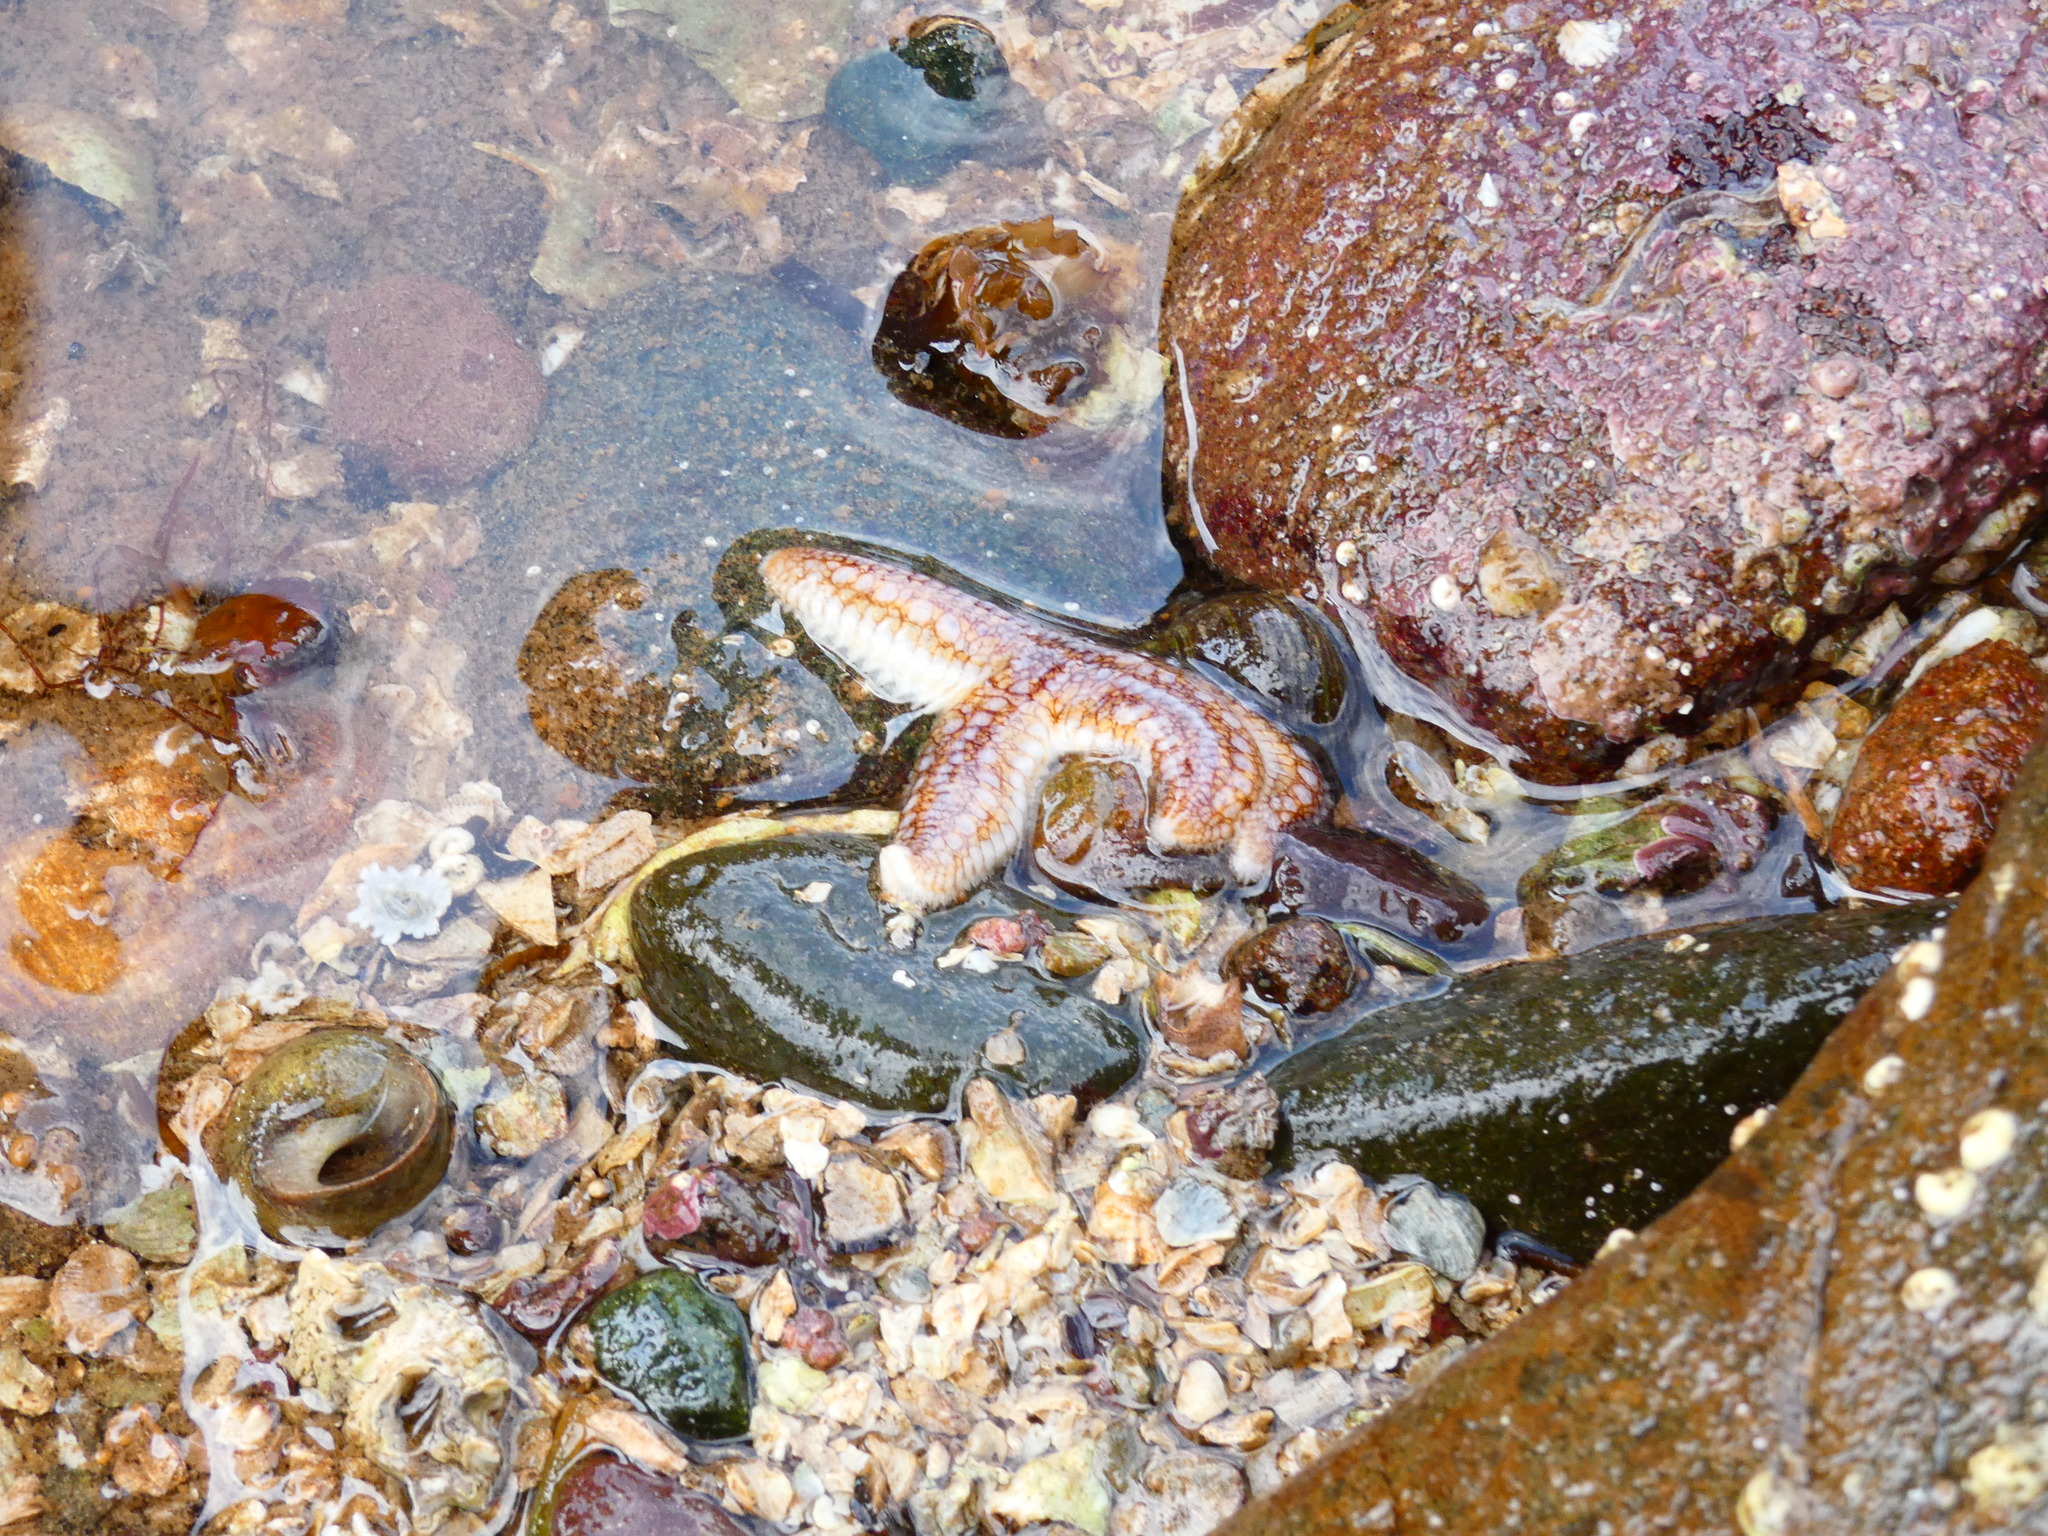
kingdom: Animalia
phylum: Echinodermata
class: Asteroidea
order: Forcipulatida
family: Asteriidae
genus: Asterias
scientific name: Asterias rubens
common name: Common starfish
